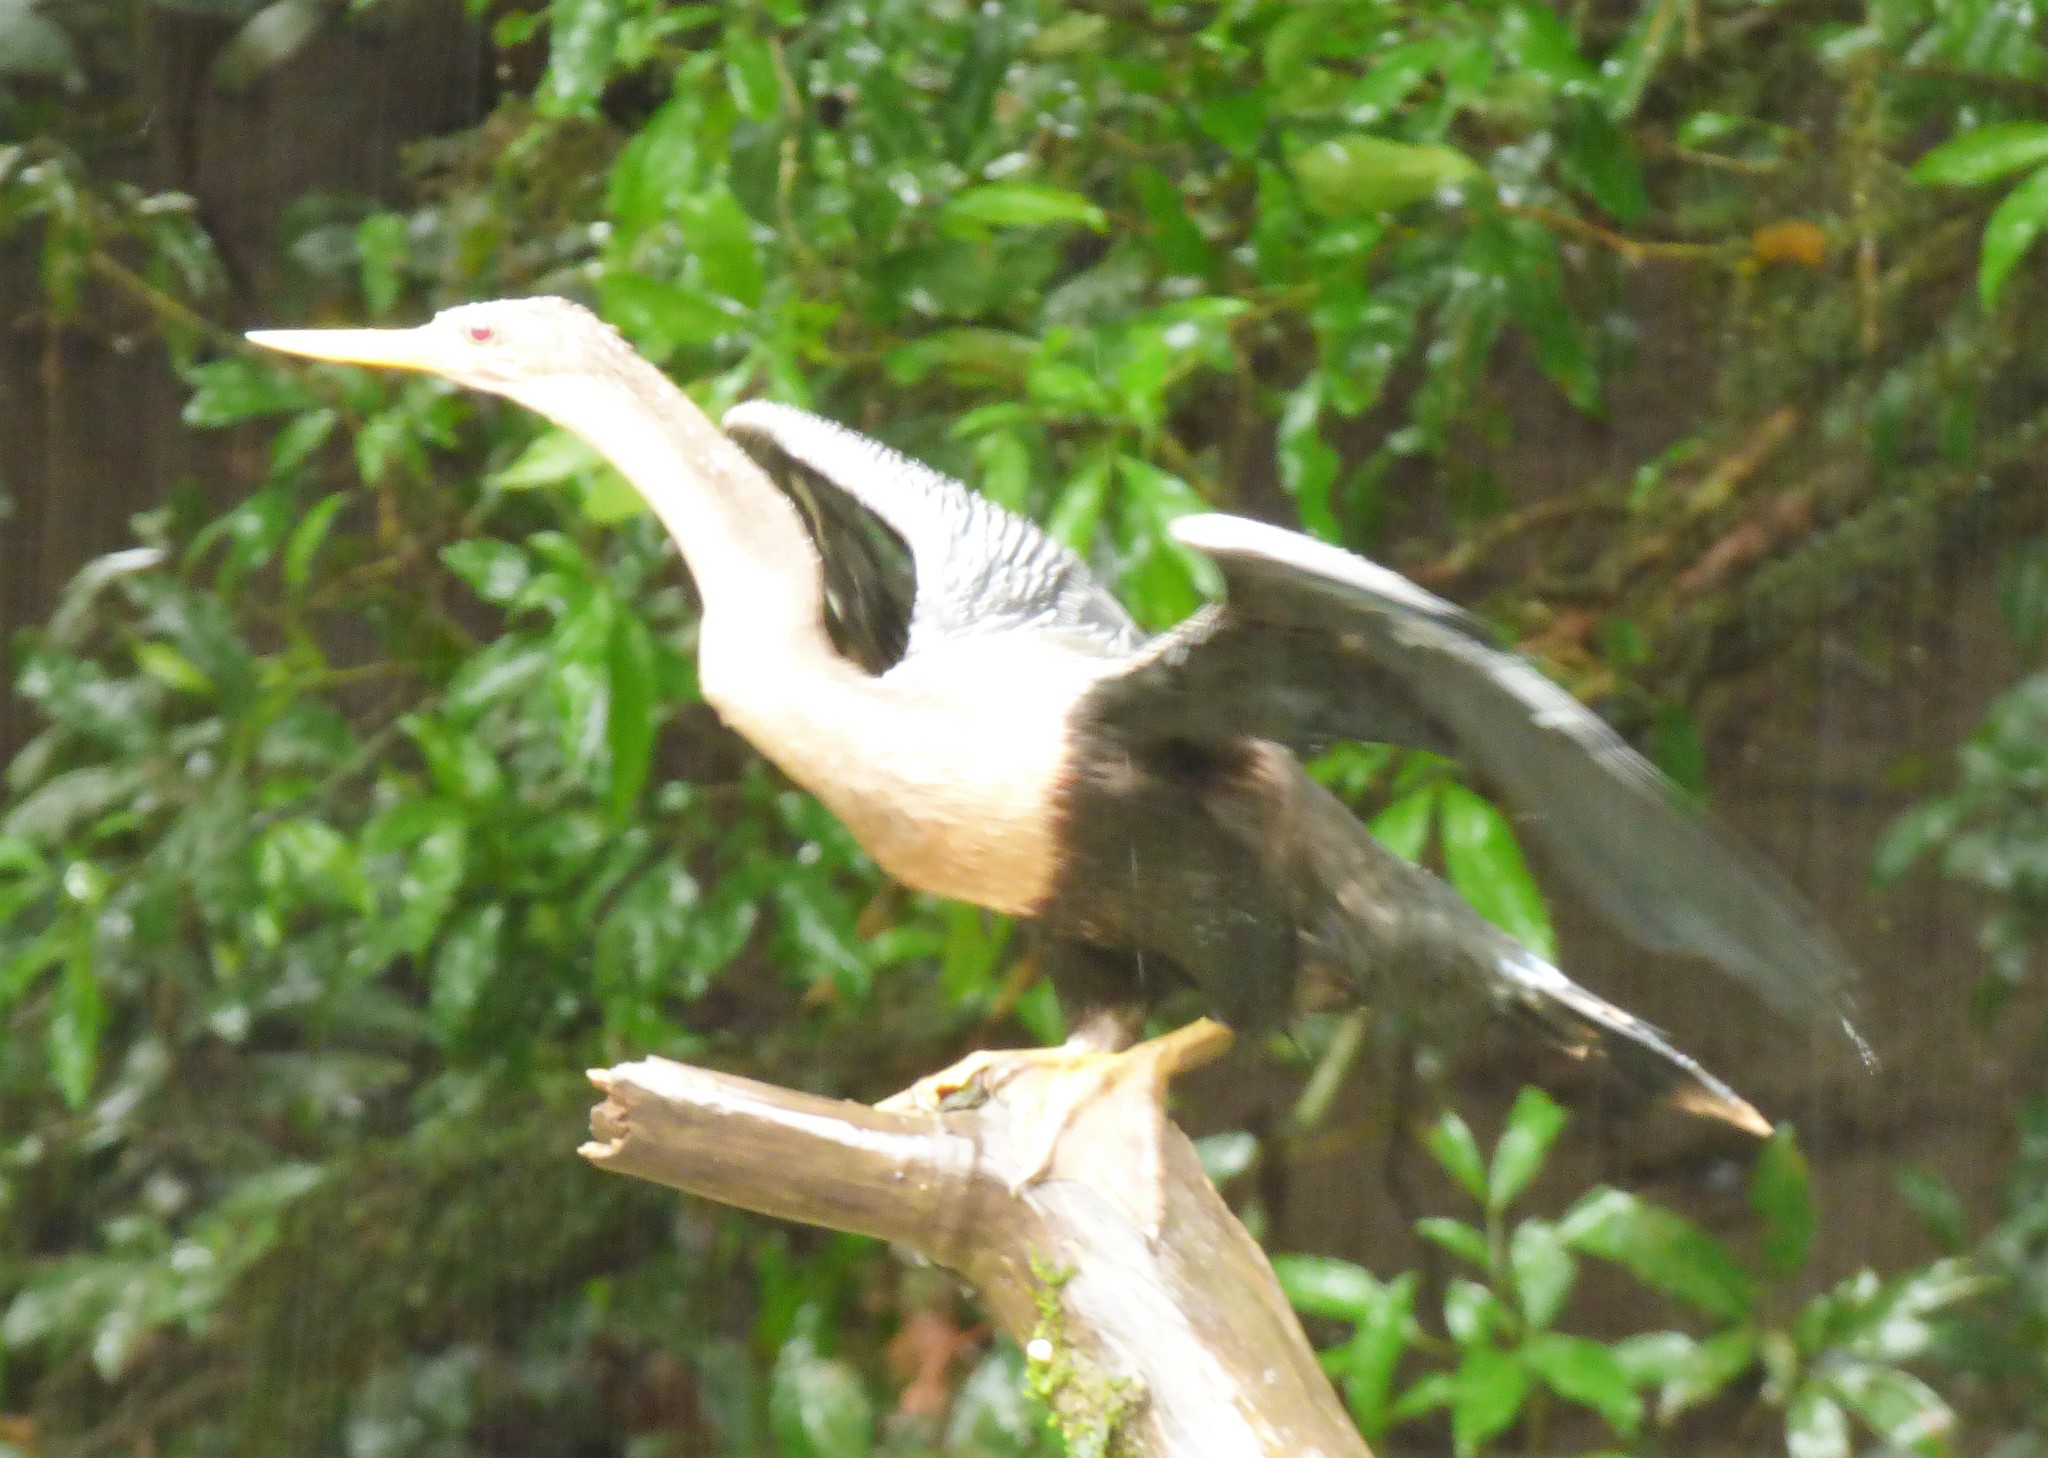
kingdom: Animalia
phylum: Chordata
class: Aves
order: Suliformes
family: Anhingidae
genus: Anhinga
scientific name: Anhinga anhinga
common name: Anhinga
